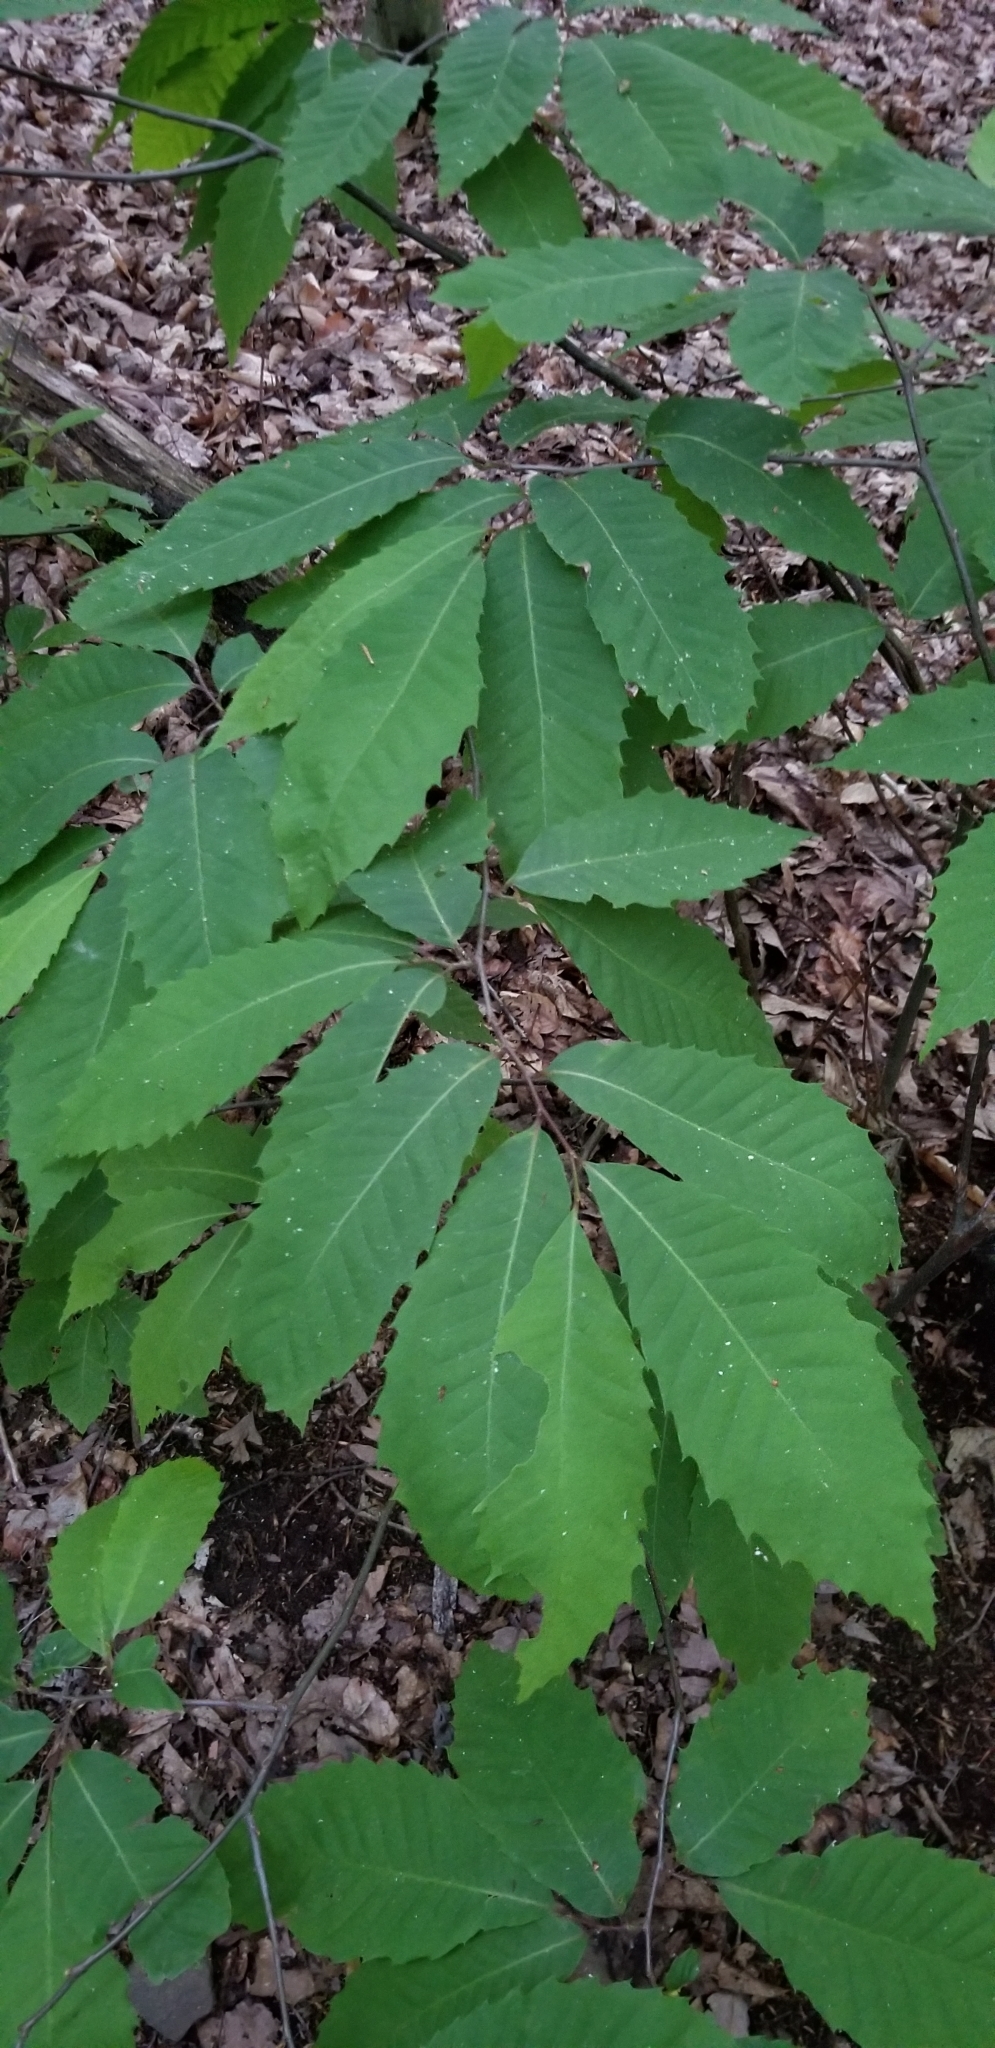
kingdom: Plantae
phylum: Tracheophyta
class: Magnoliopsida
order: Fagales
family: Fagaceae
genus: Castanea
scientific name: Castanea dentata
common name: American chestnut
